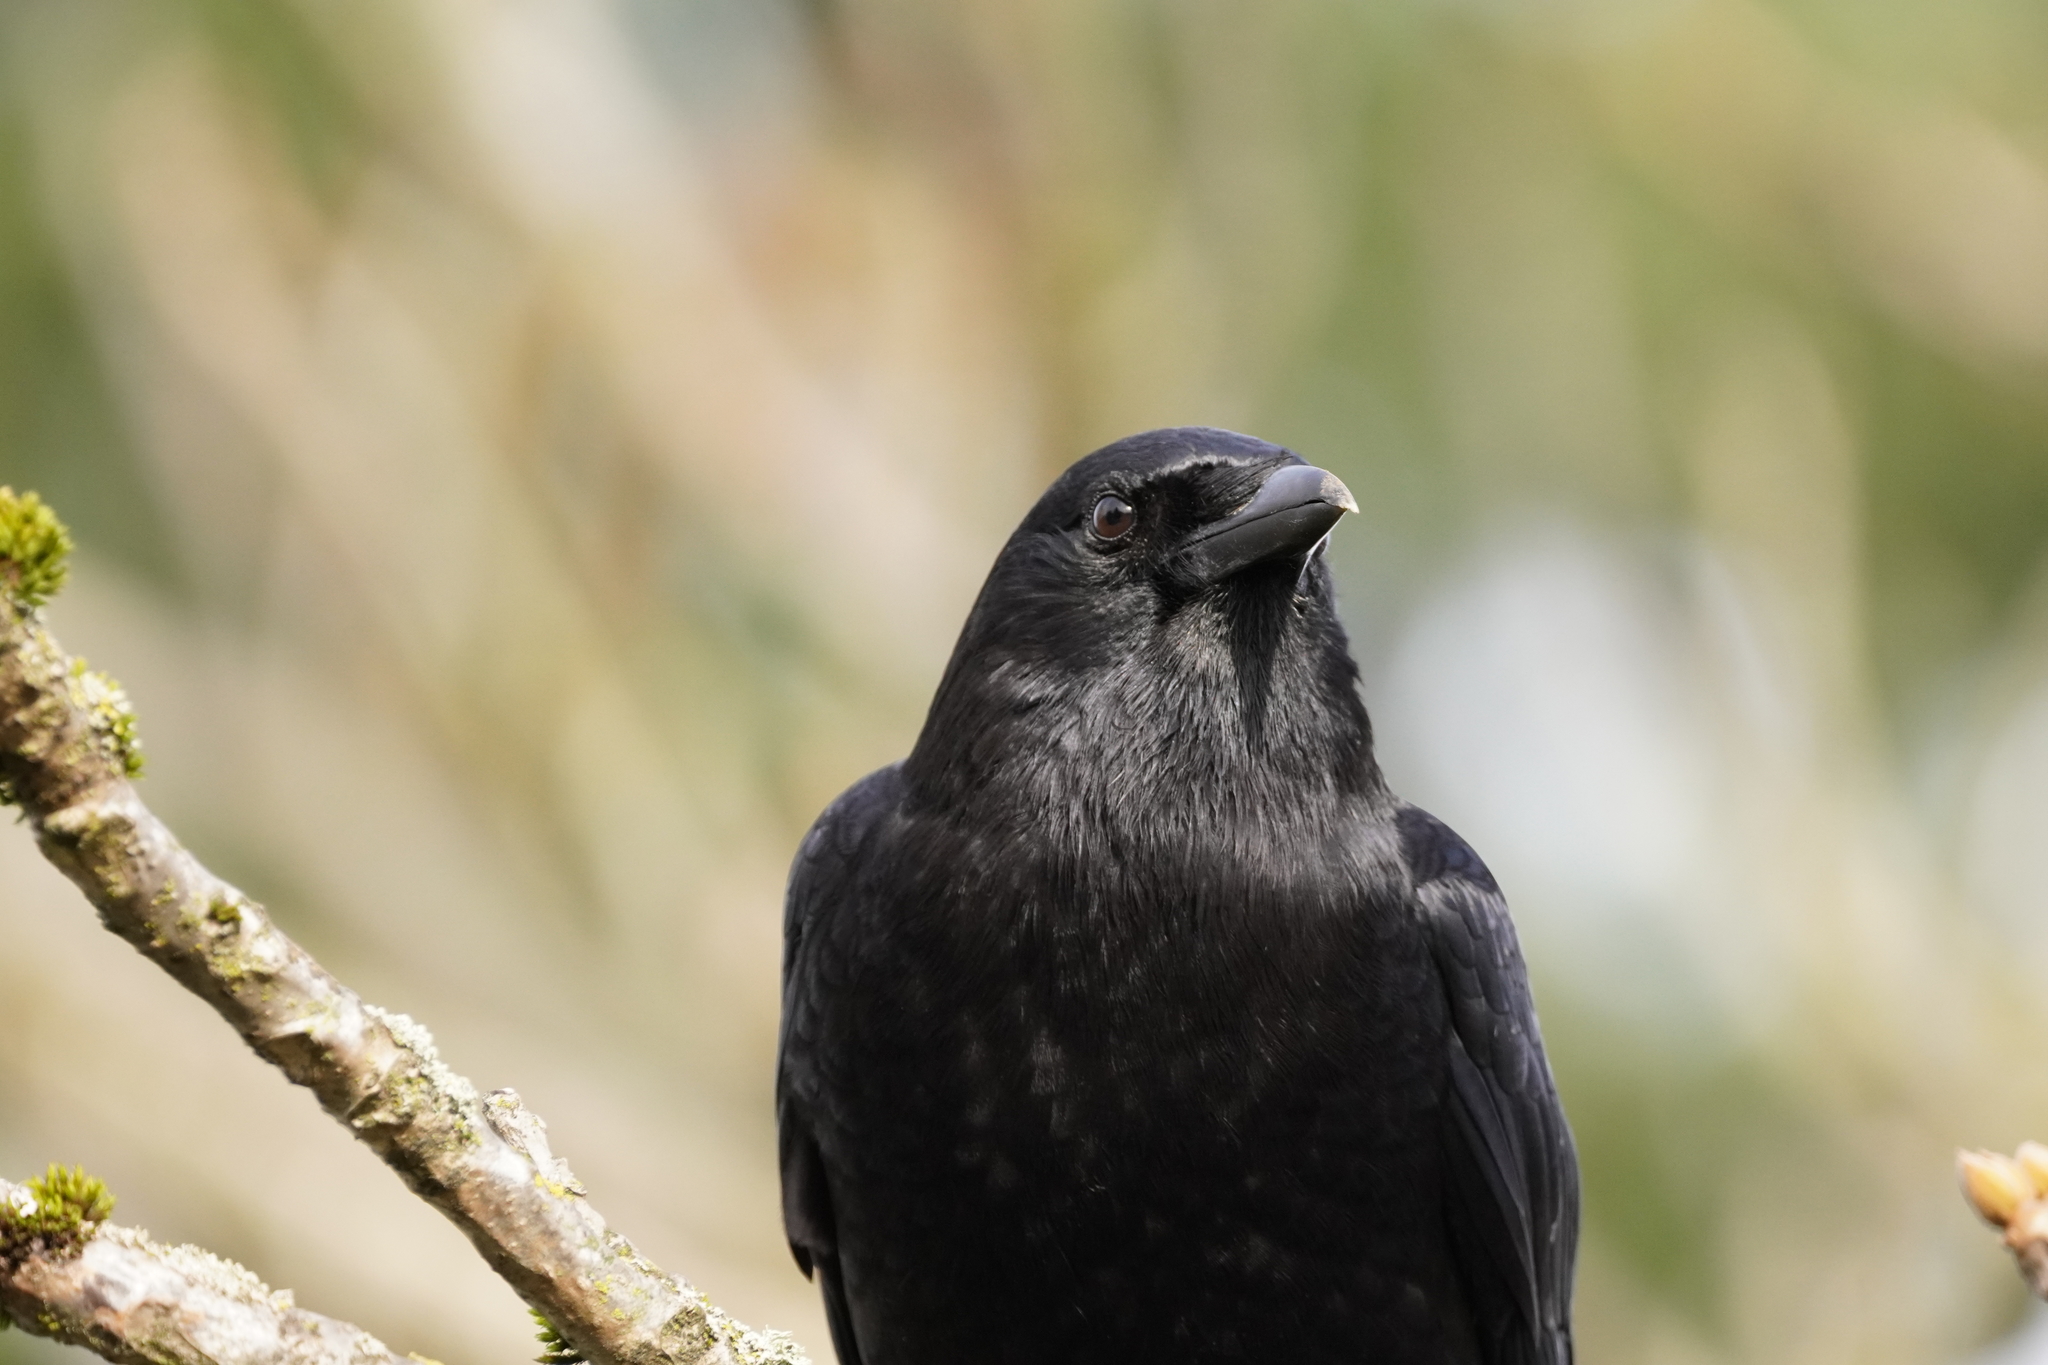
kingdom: Animalia
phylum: Chordata
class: Aves
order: Passeriformes
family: Corvidae
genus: Corvus
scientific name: Corvus brachyrhynchos
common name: American crow
